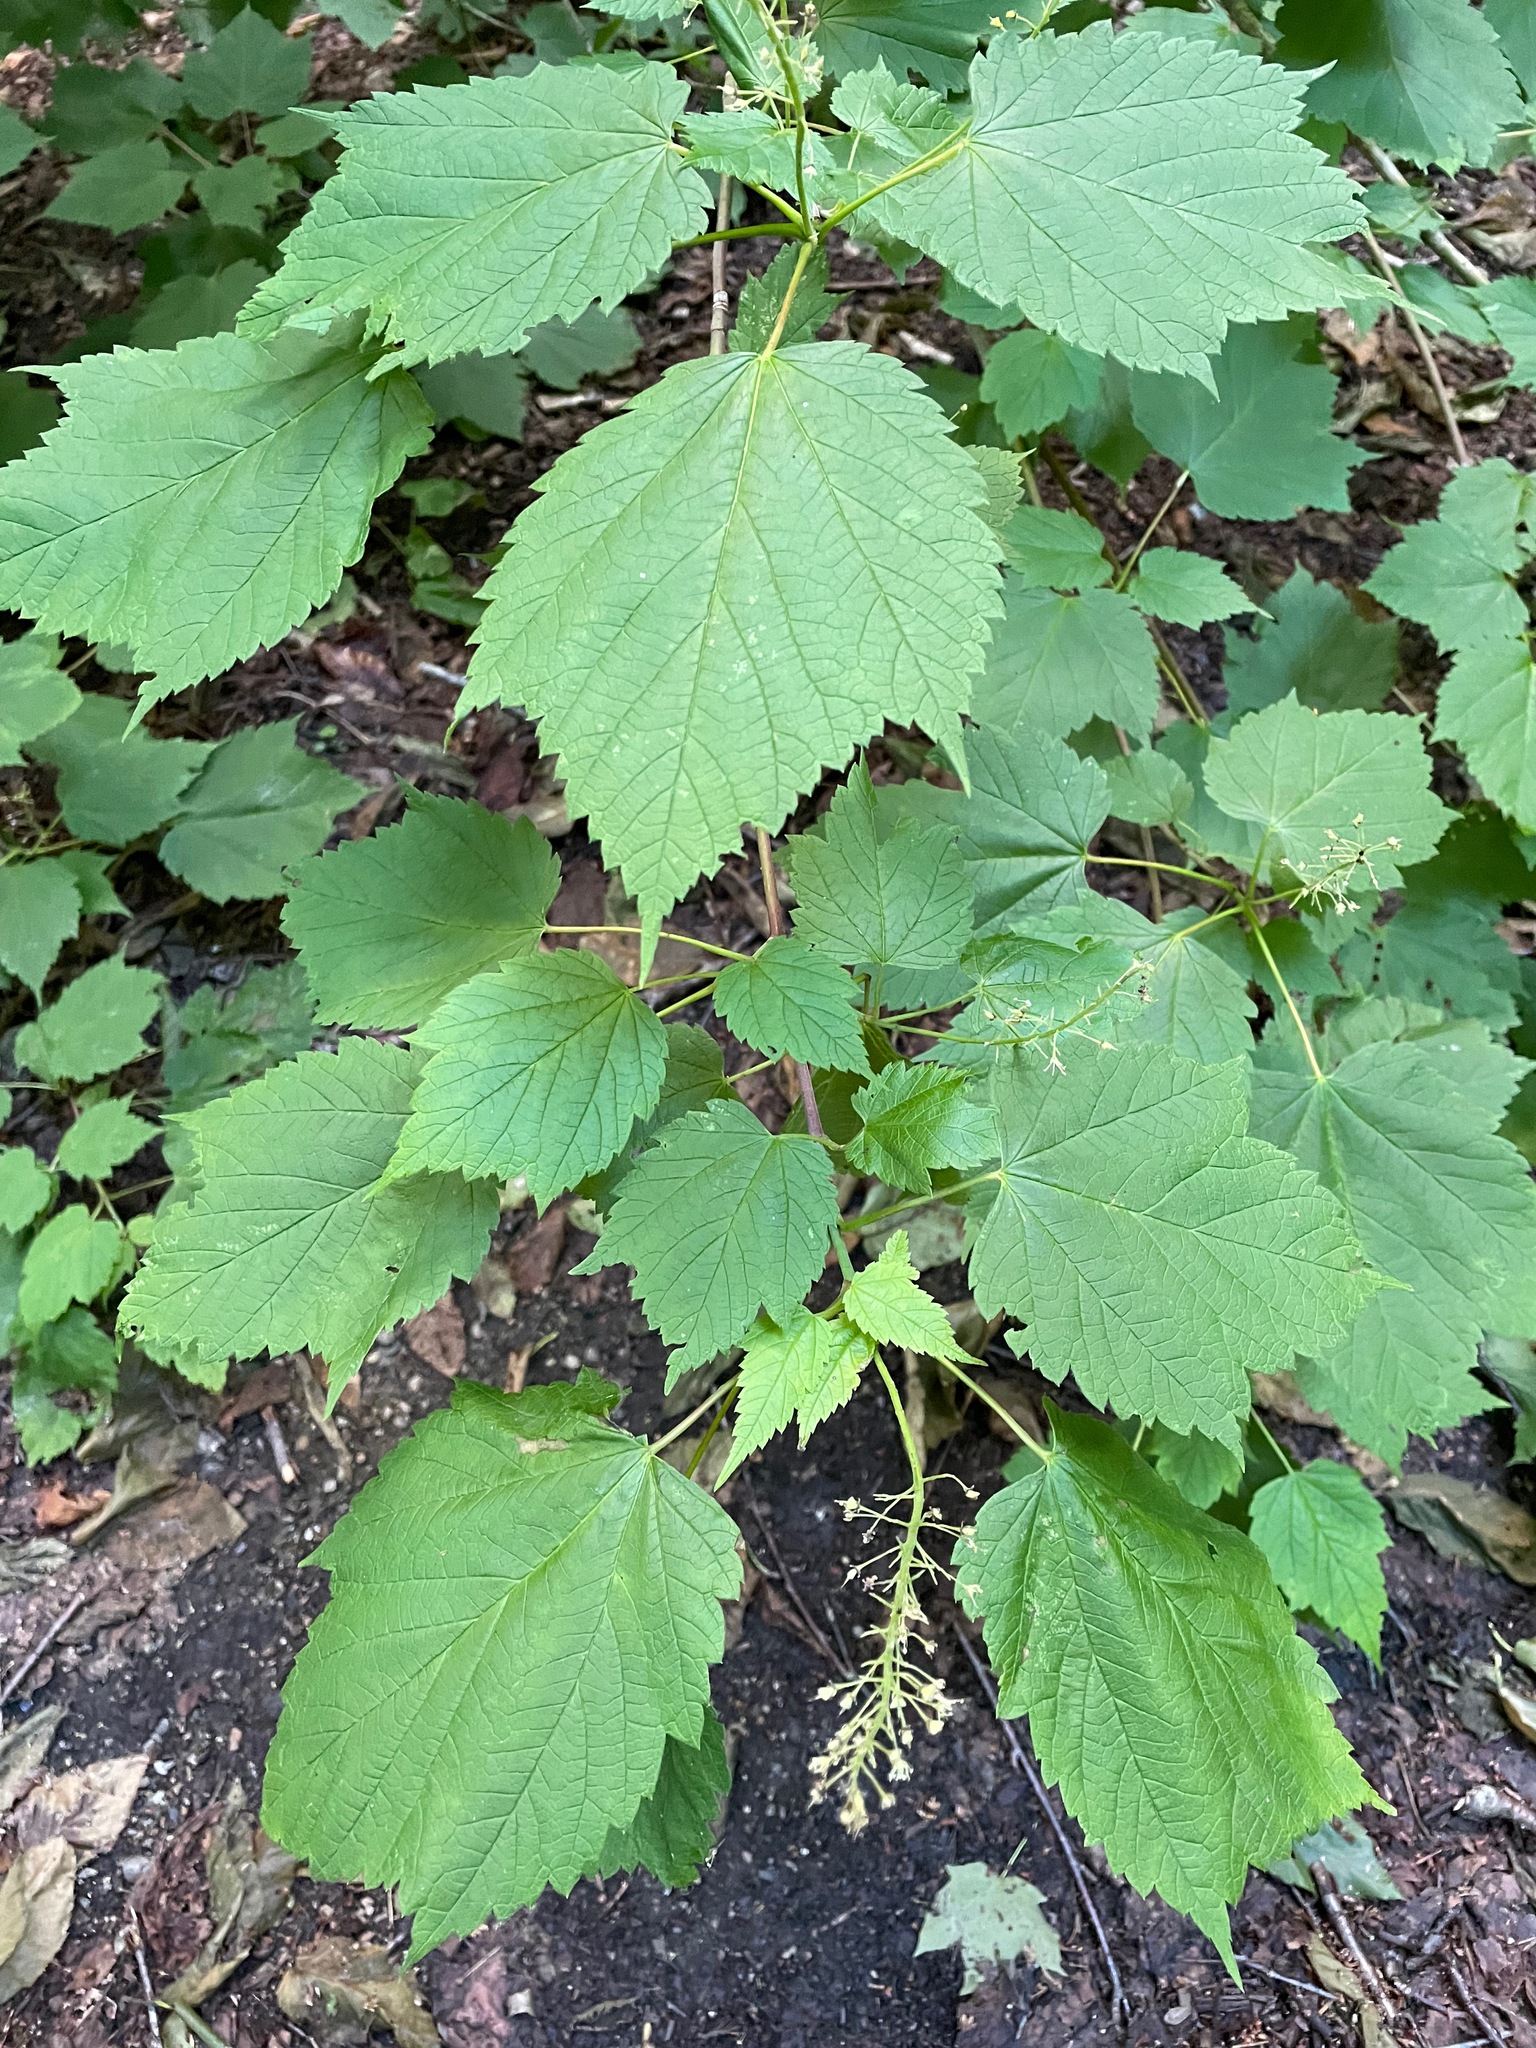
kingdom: Plantae
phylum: Tracheophyta
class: Magnoliopsida
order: Sapindales
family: Sapindaceae
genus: Acer
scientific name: Acer spicatum
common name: Mountain maple
